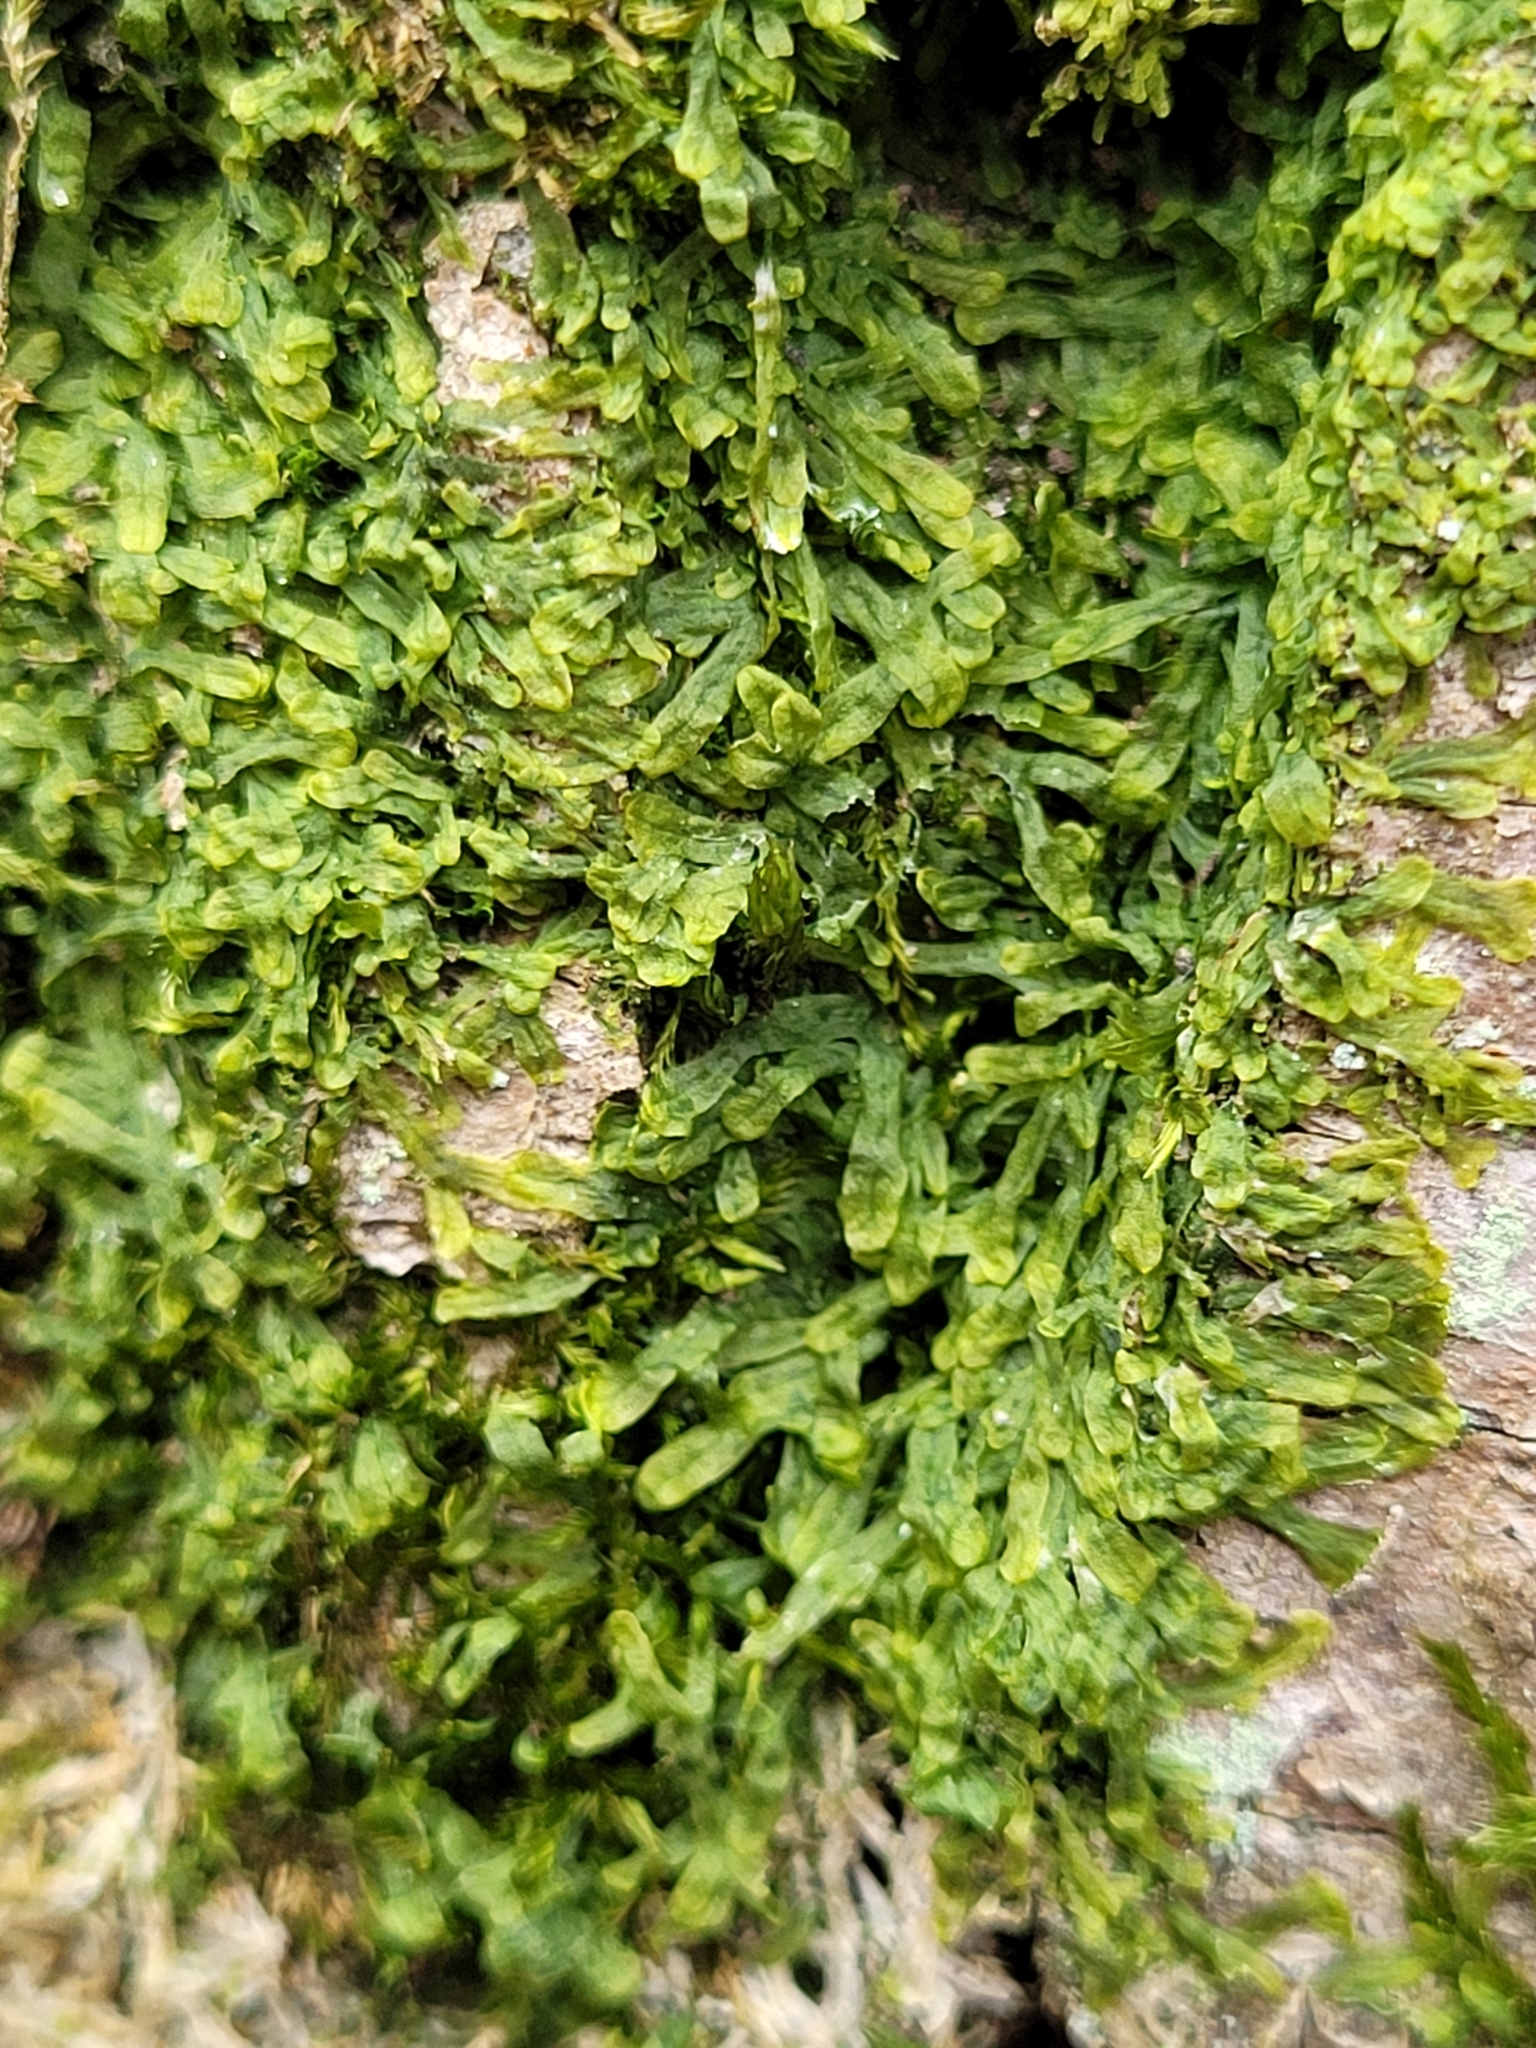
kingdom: Plantae
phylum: Marchantiophyta
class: Jungermanniopsida
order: Metzgeriales
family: Metzgeriaceae
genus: Metzgeria
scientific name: Metzgeria furcata
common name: Forked veilwort
